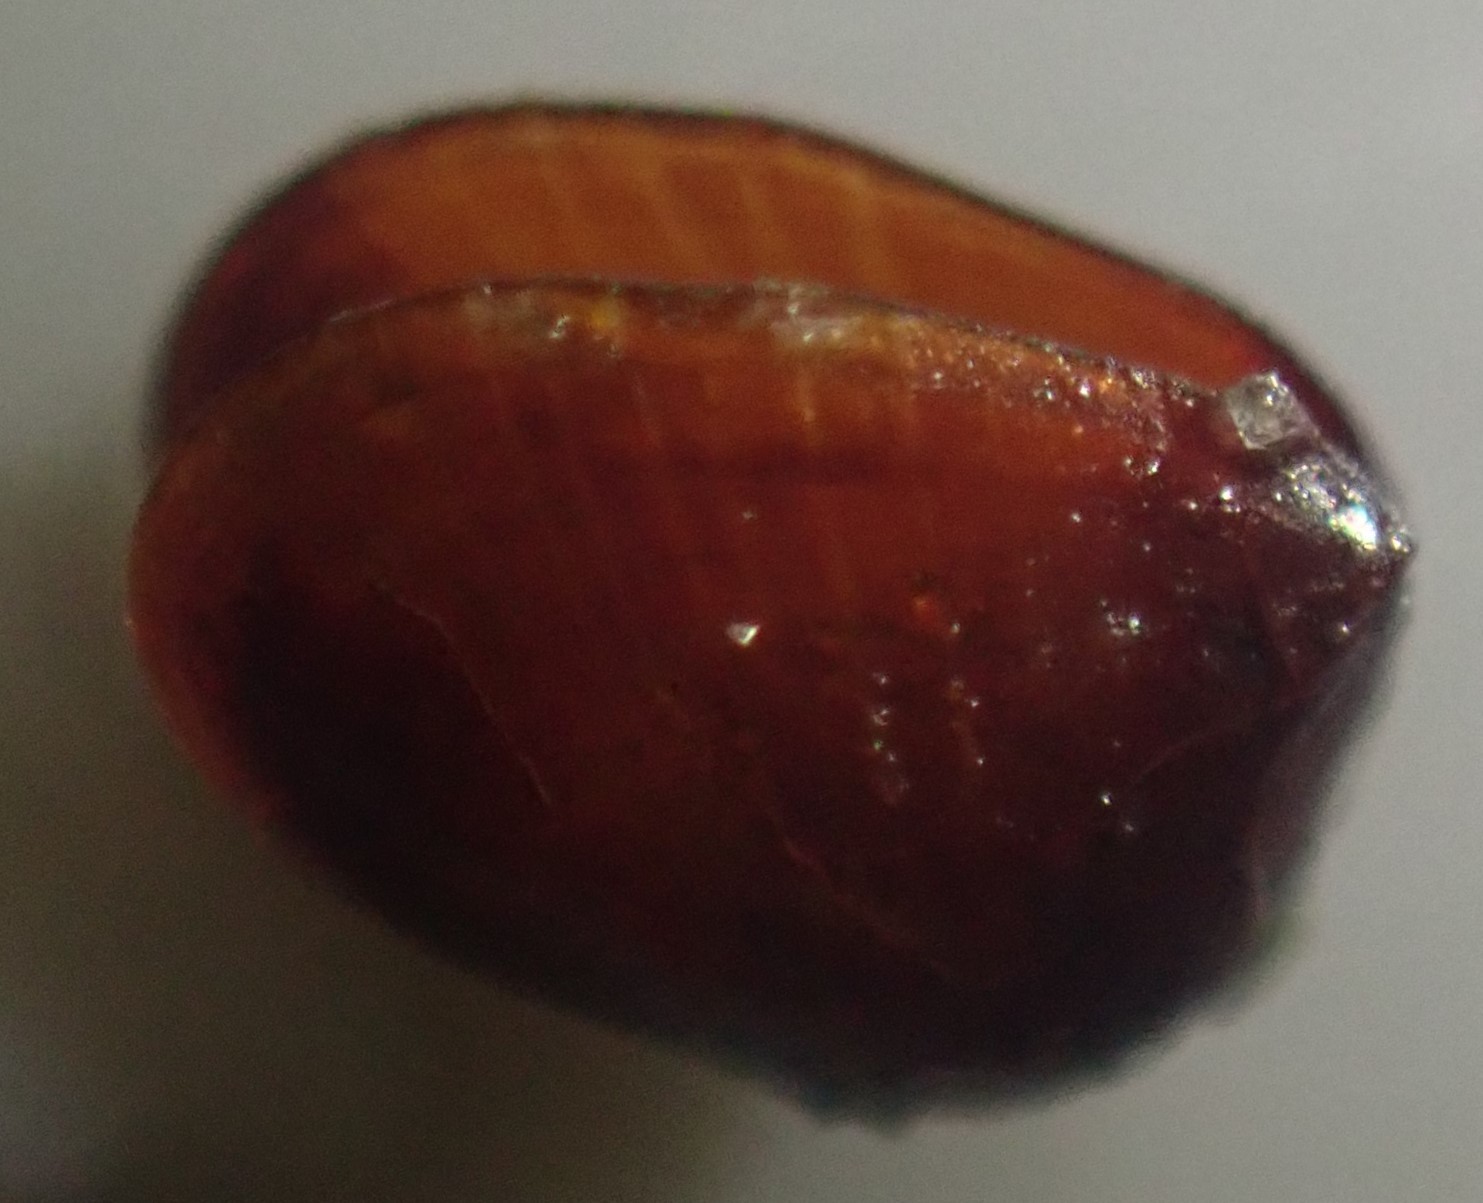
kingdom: Animalia
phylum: Mollusca
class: Bivalvia
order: Galeommatida
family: Lasaeidae
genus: Montacuta
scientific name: Montacuta semiradiata
